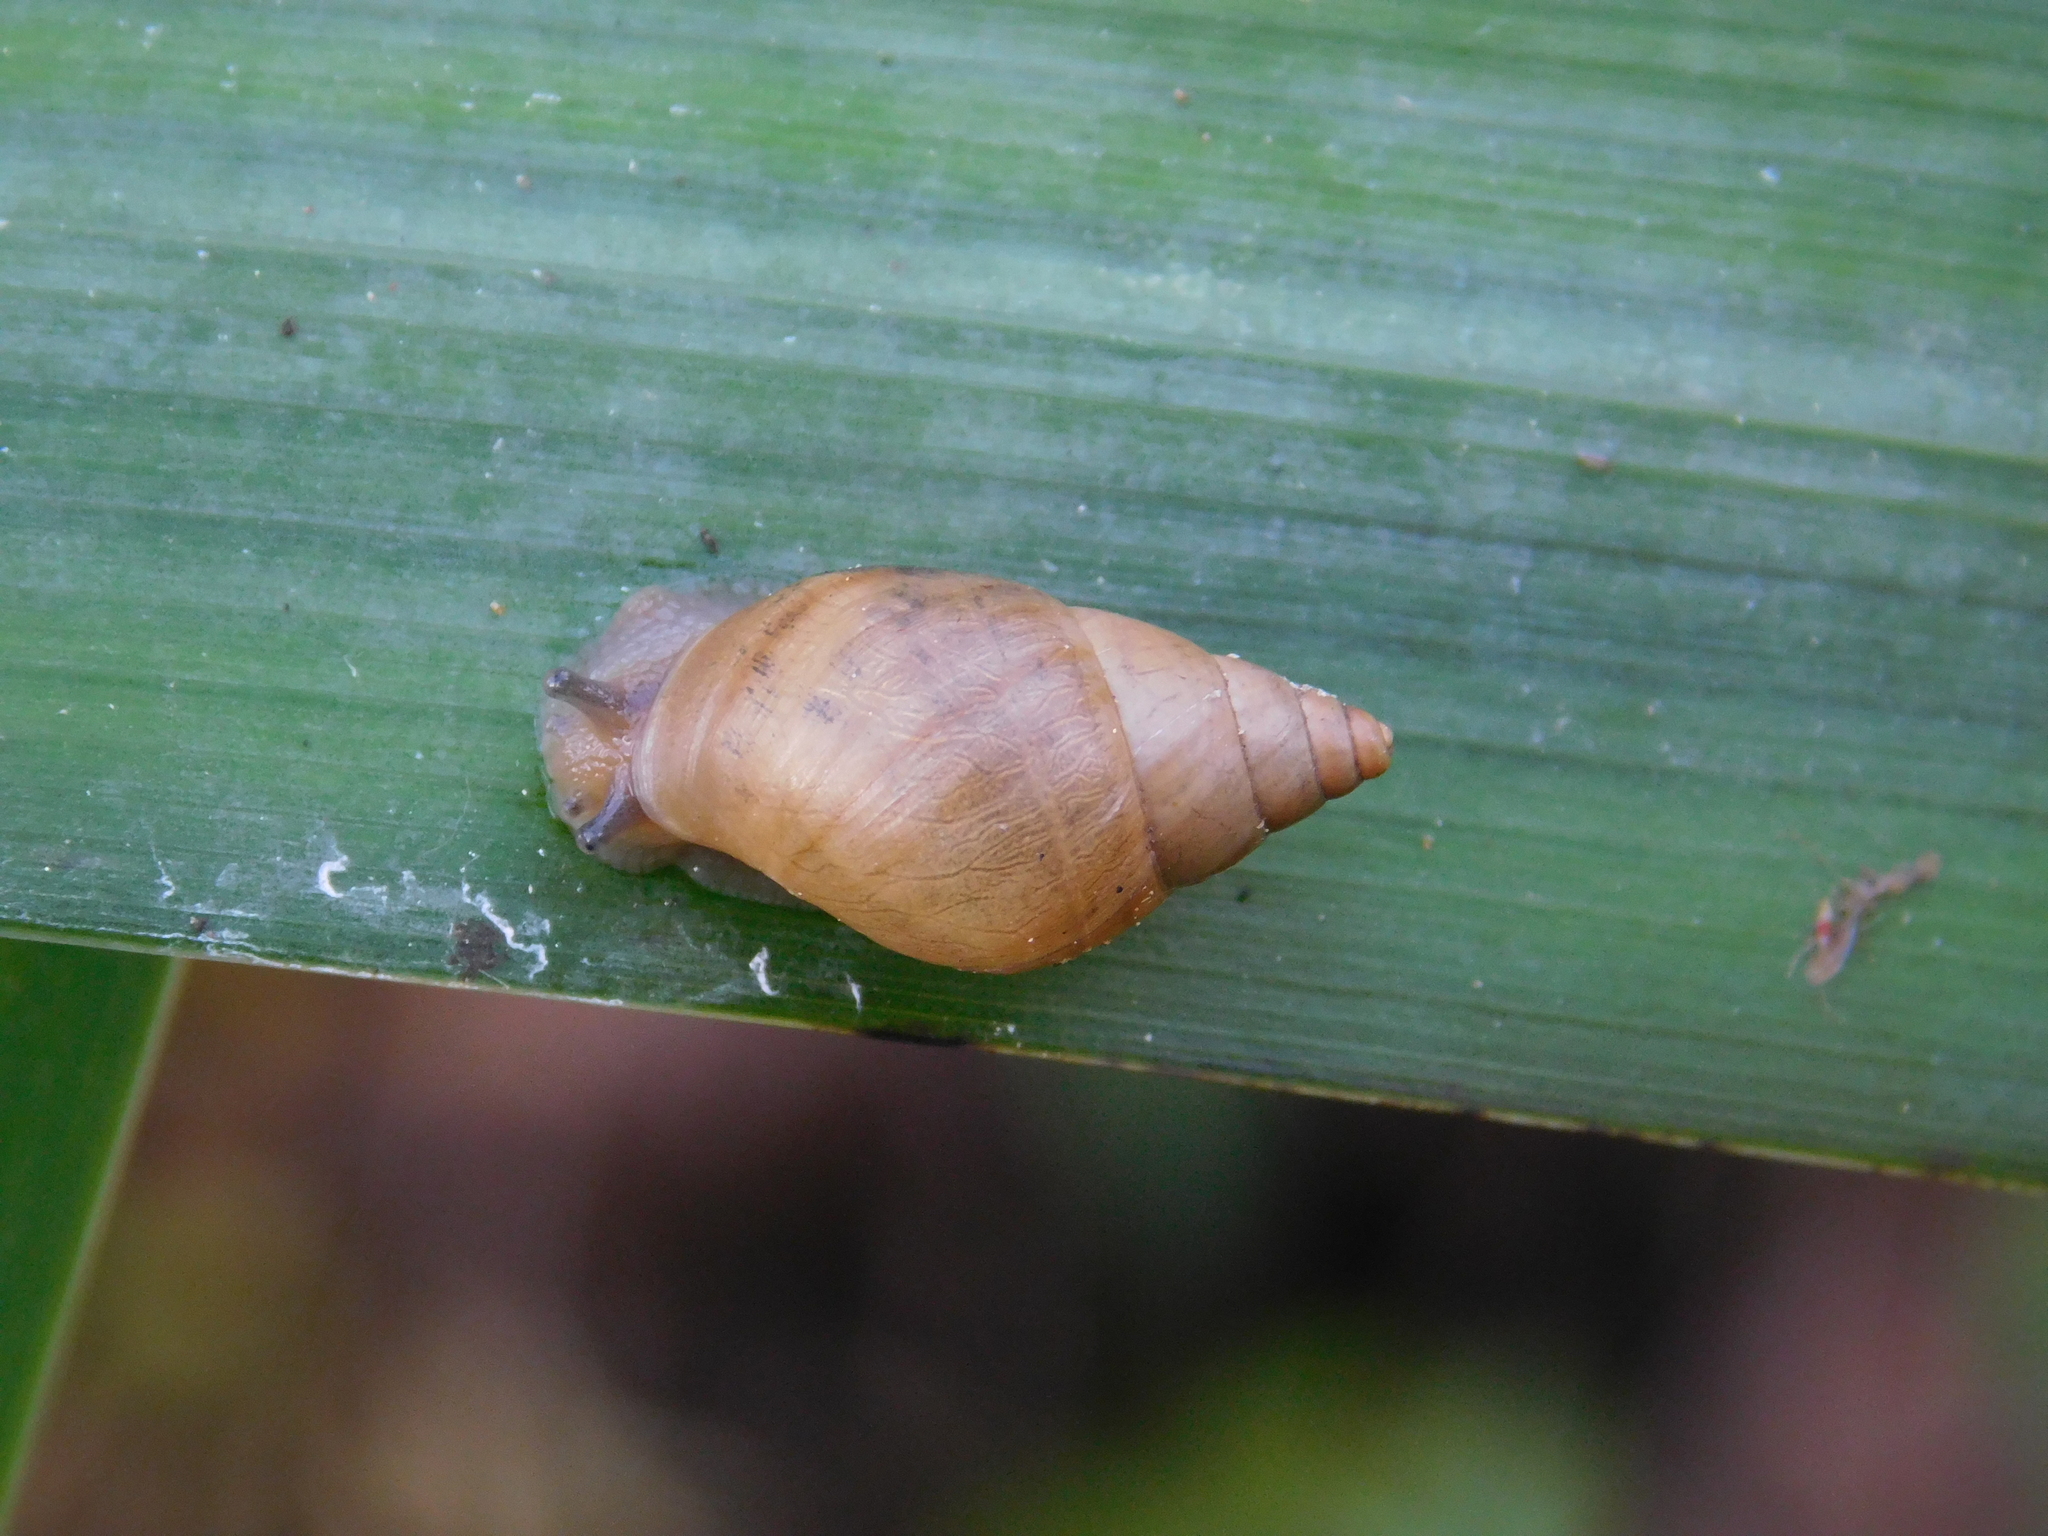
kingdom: Animalia
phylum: Mollusca
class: Gastropoda
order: Stylommatophora
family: Bulimulidae
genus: Bulimulus
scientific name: Bulimulus bonariensis
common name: Snail
